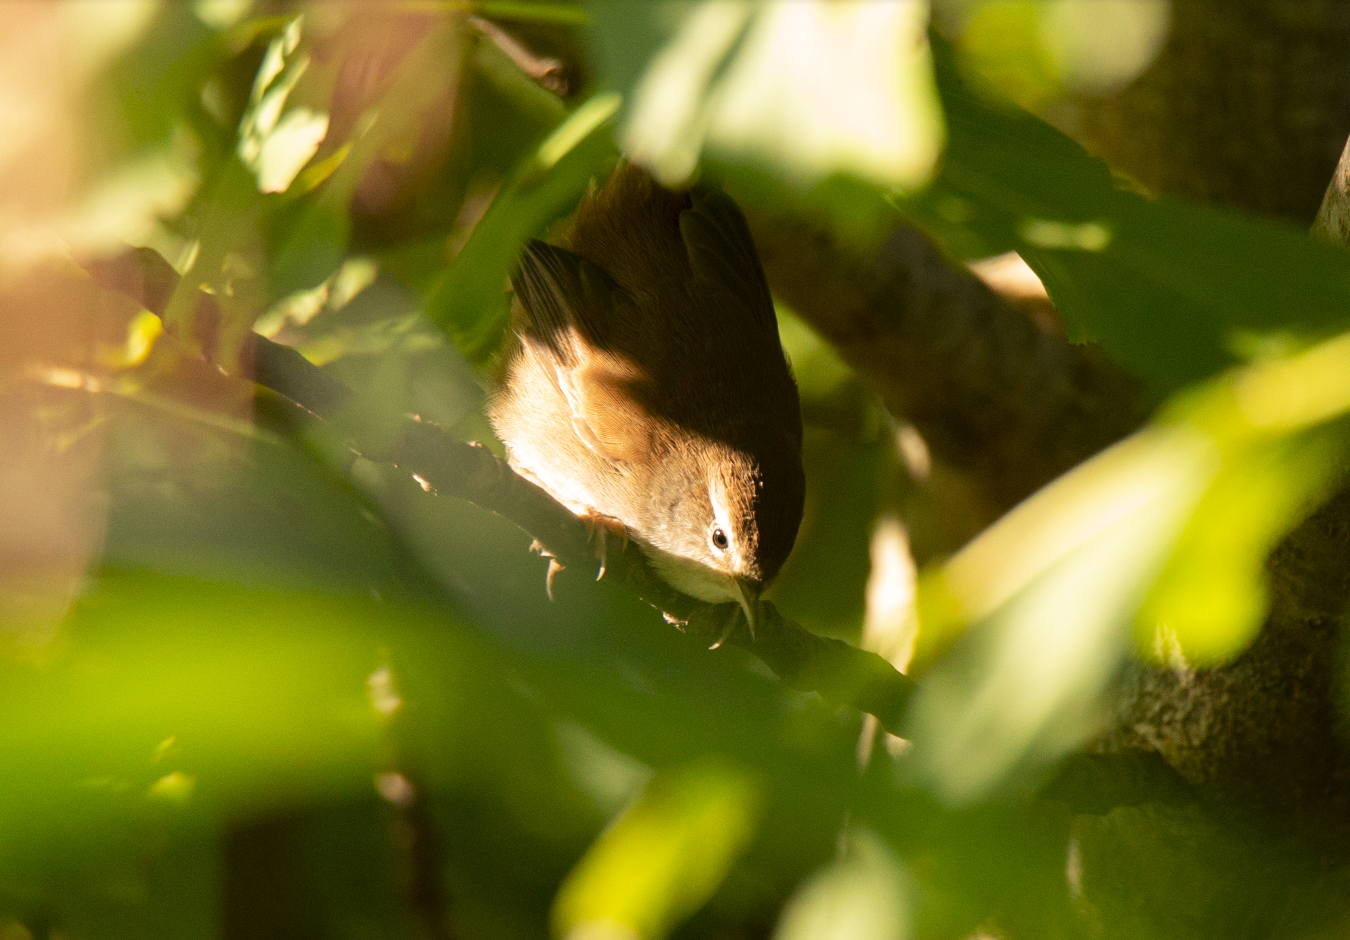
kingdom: Animalia
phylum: Chordata
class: Aves
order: Passeriformes
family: Cettiidae
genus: Cettia
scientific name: Cettia cetti
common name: Cetti's warbler
